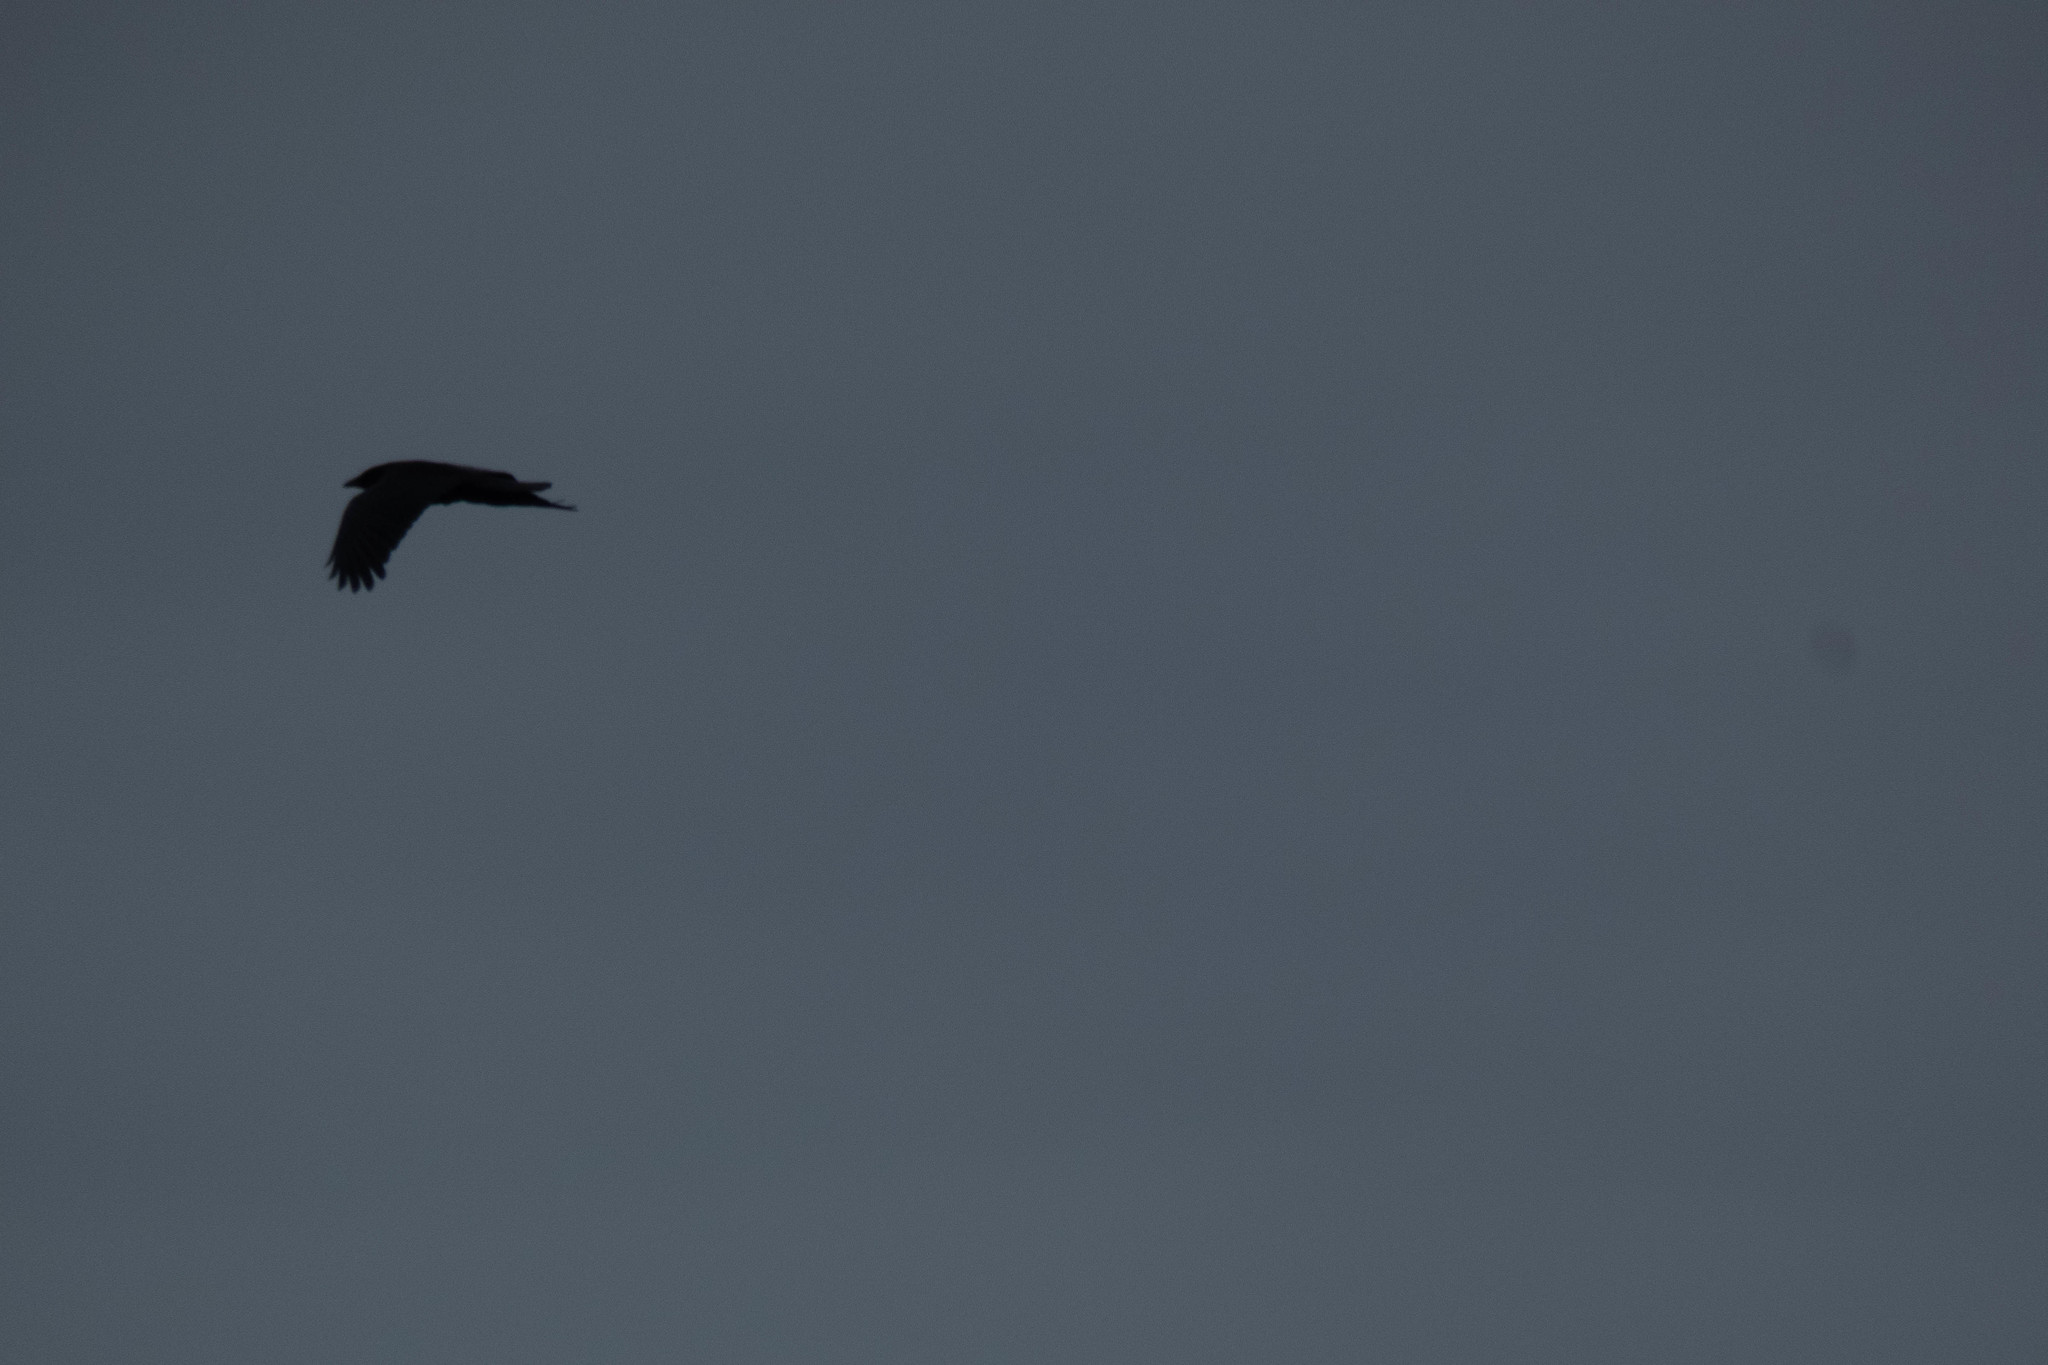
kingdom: Animalia
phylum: Chordata
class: Aves
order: Passeriformes
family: Corvidae
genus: Corvus
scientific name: Corvus brachyrhynchos
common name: American crow
